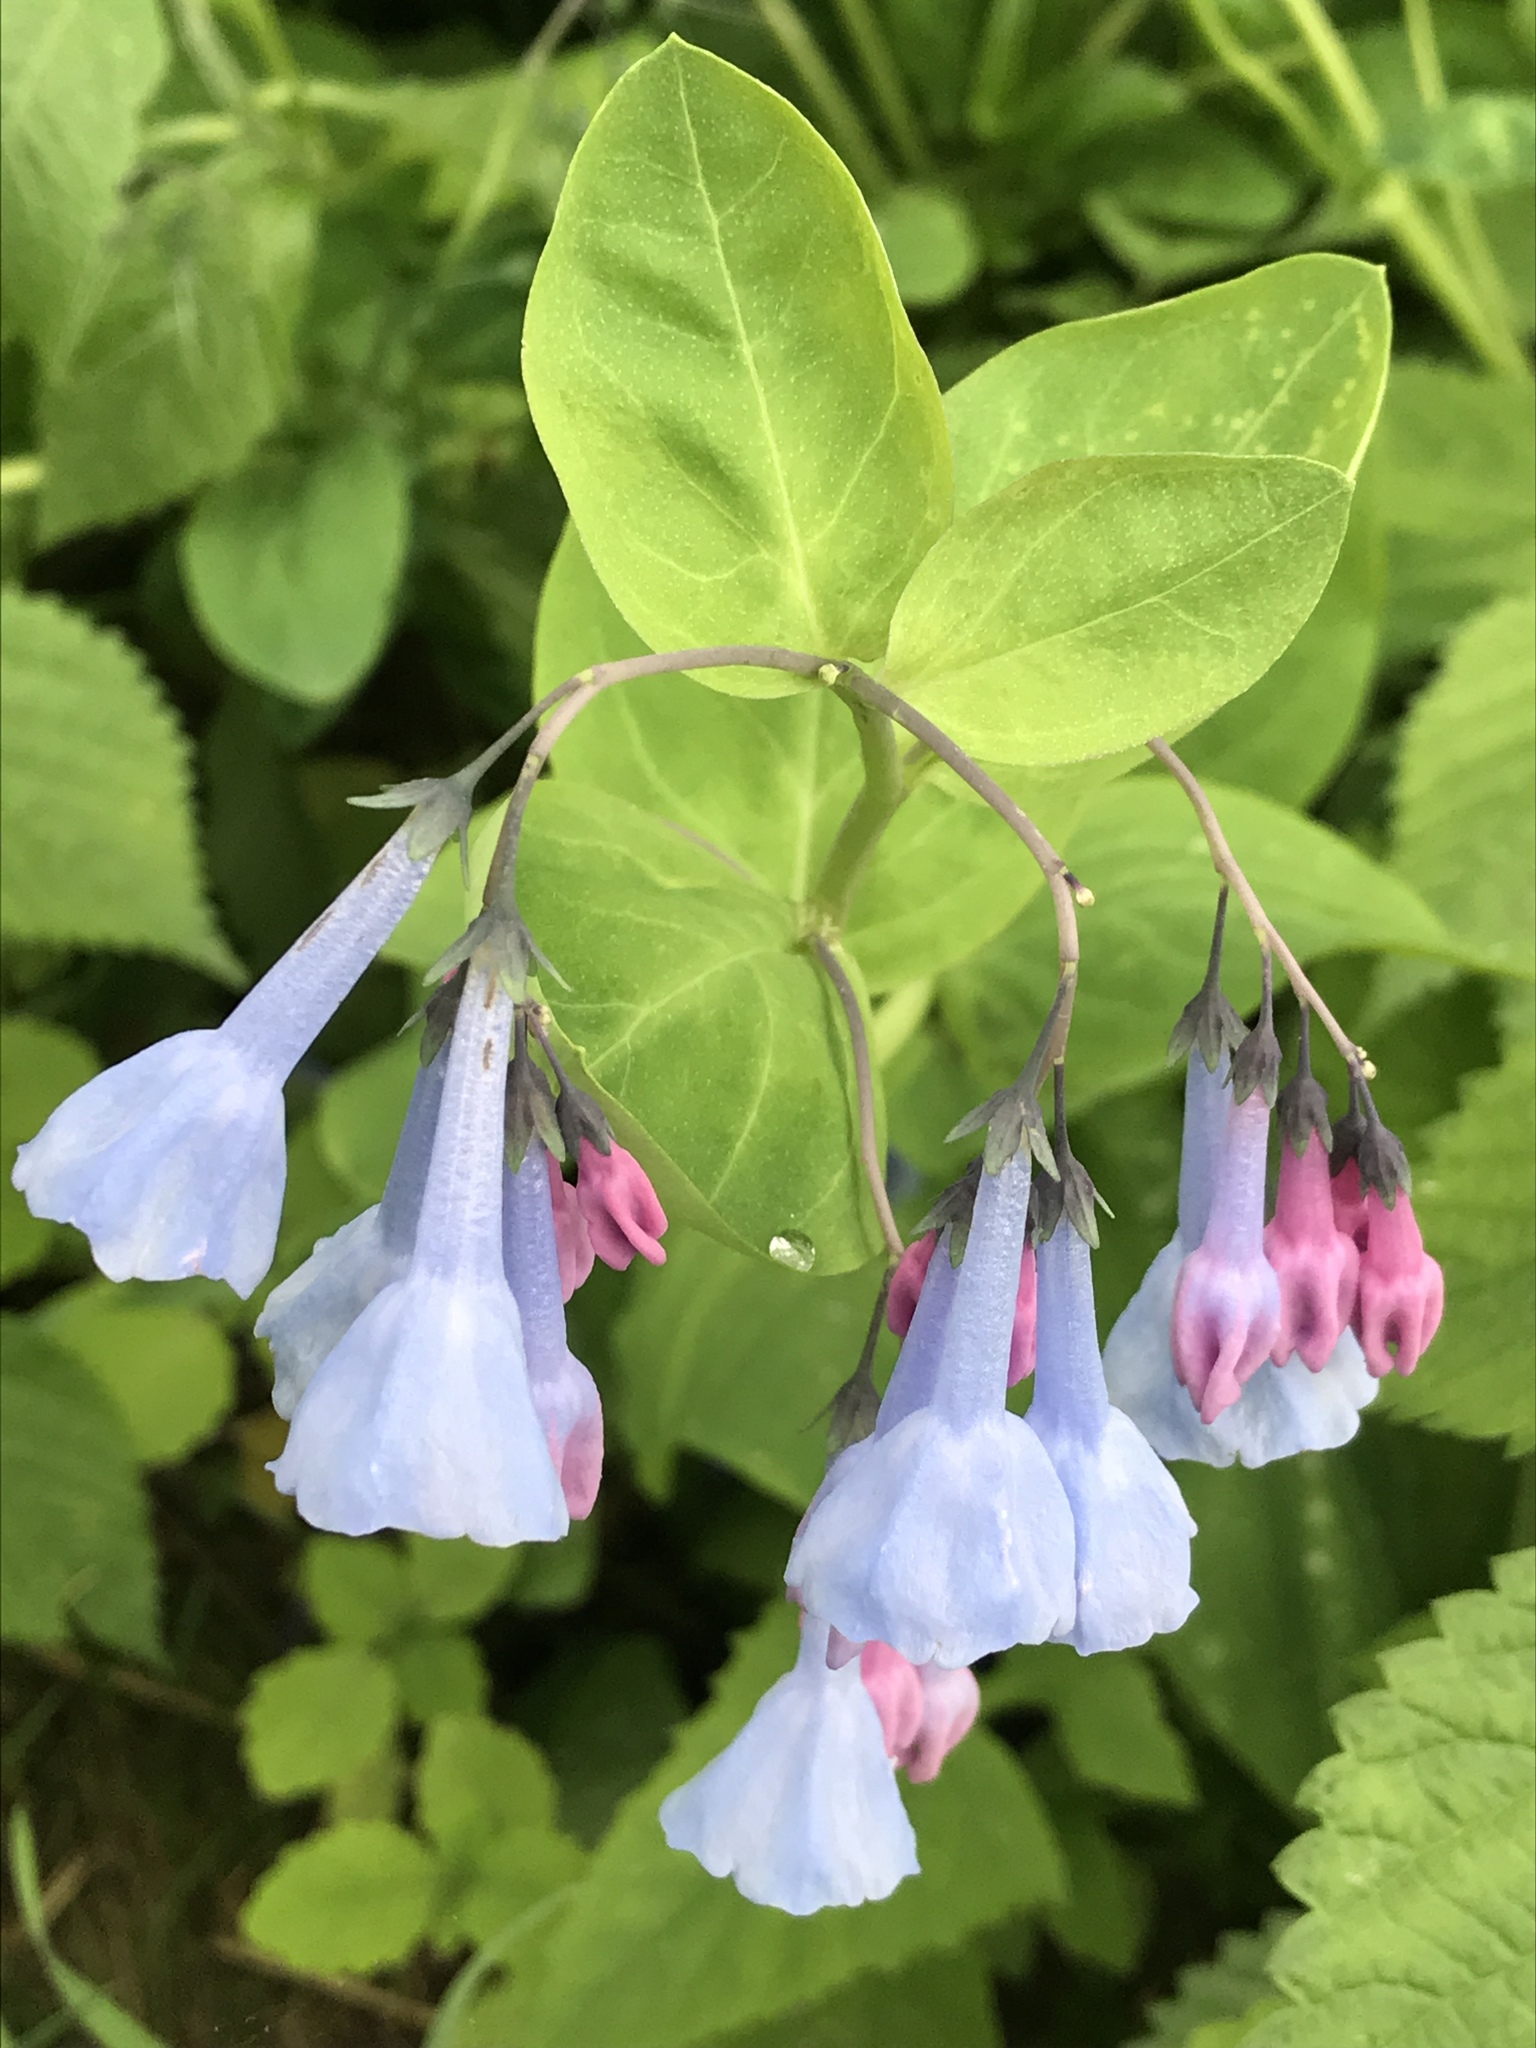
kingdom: Plantae
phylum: Tracheophyta
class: Magnoliopsida
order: Boraginales
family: Boraginaceae
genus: Mertensia
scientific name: Mertensia virginica
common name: Virginia bluebells
